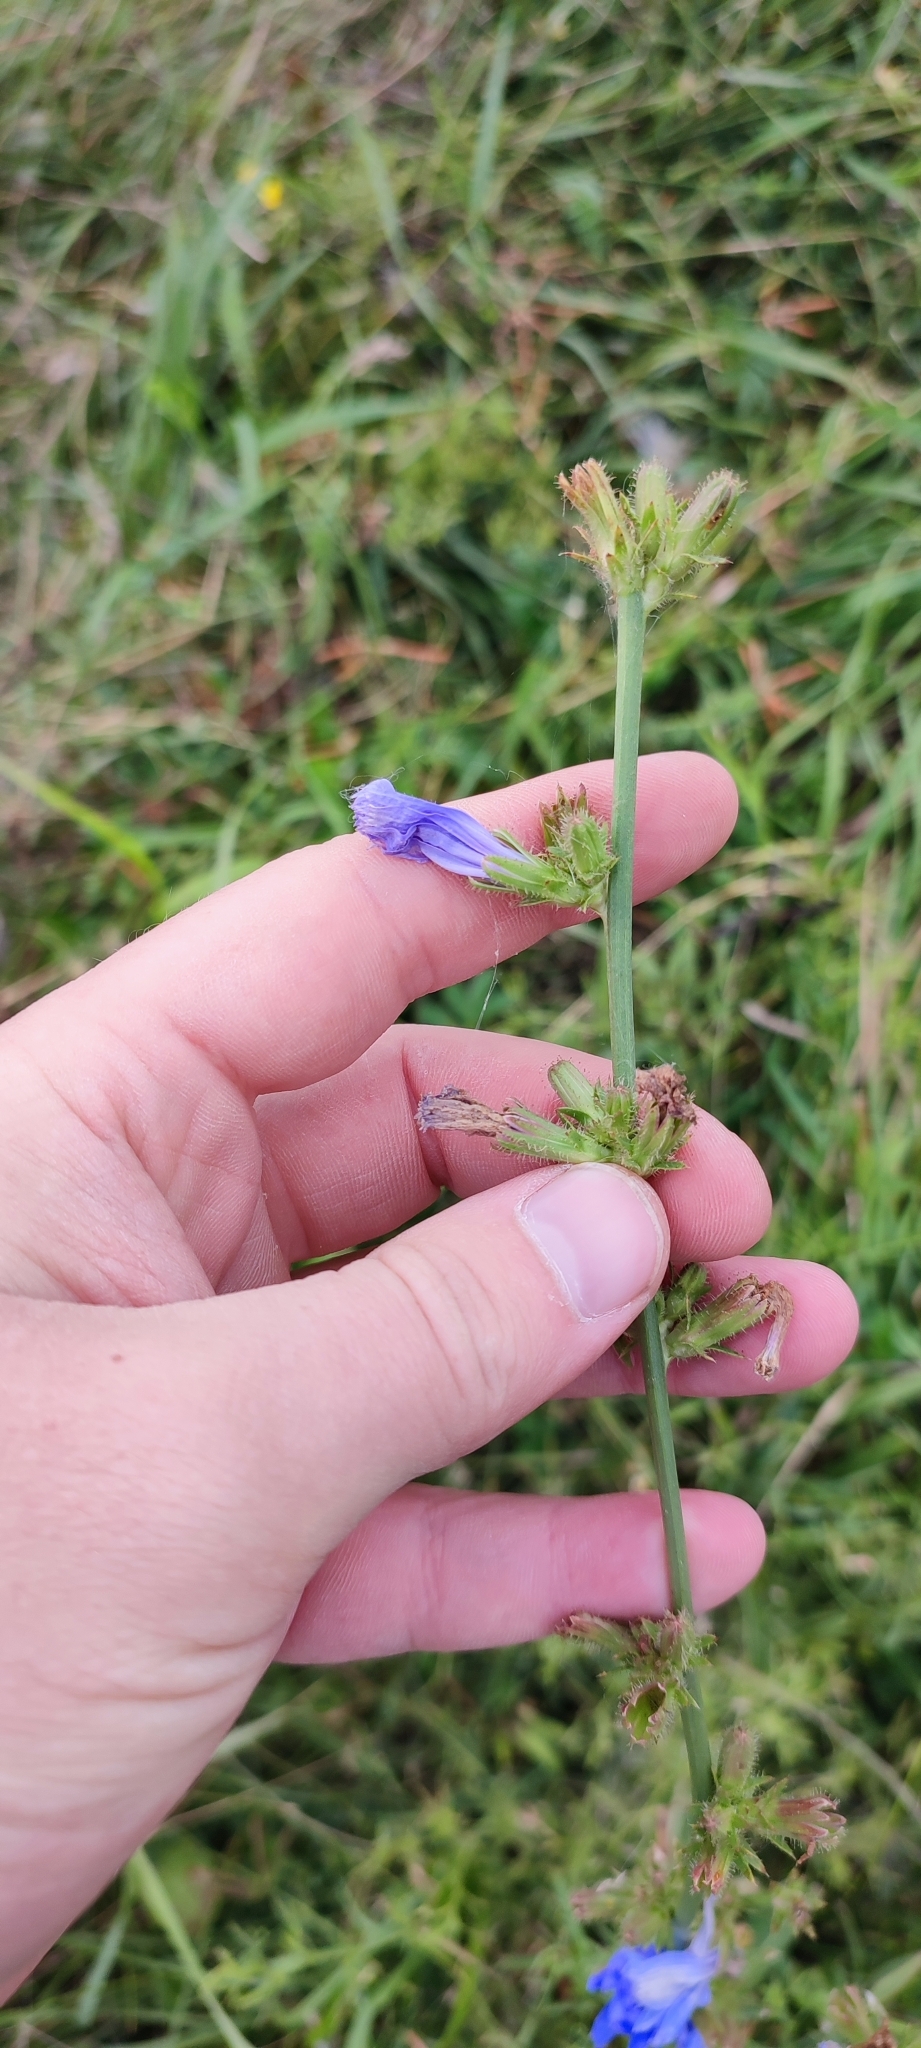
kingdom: Plantae
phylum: Tracheophyta
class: Magnoliopsida
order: Asterales
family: Asteraceae
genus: Cichorium
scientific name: Cichorium intybus
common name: Chicory
